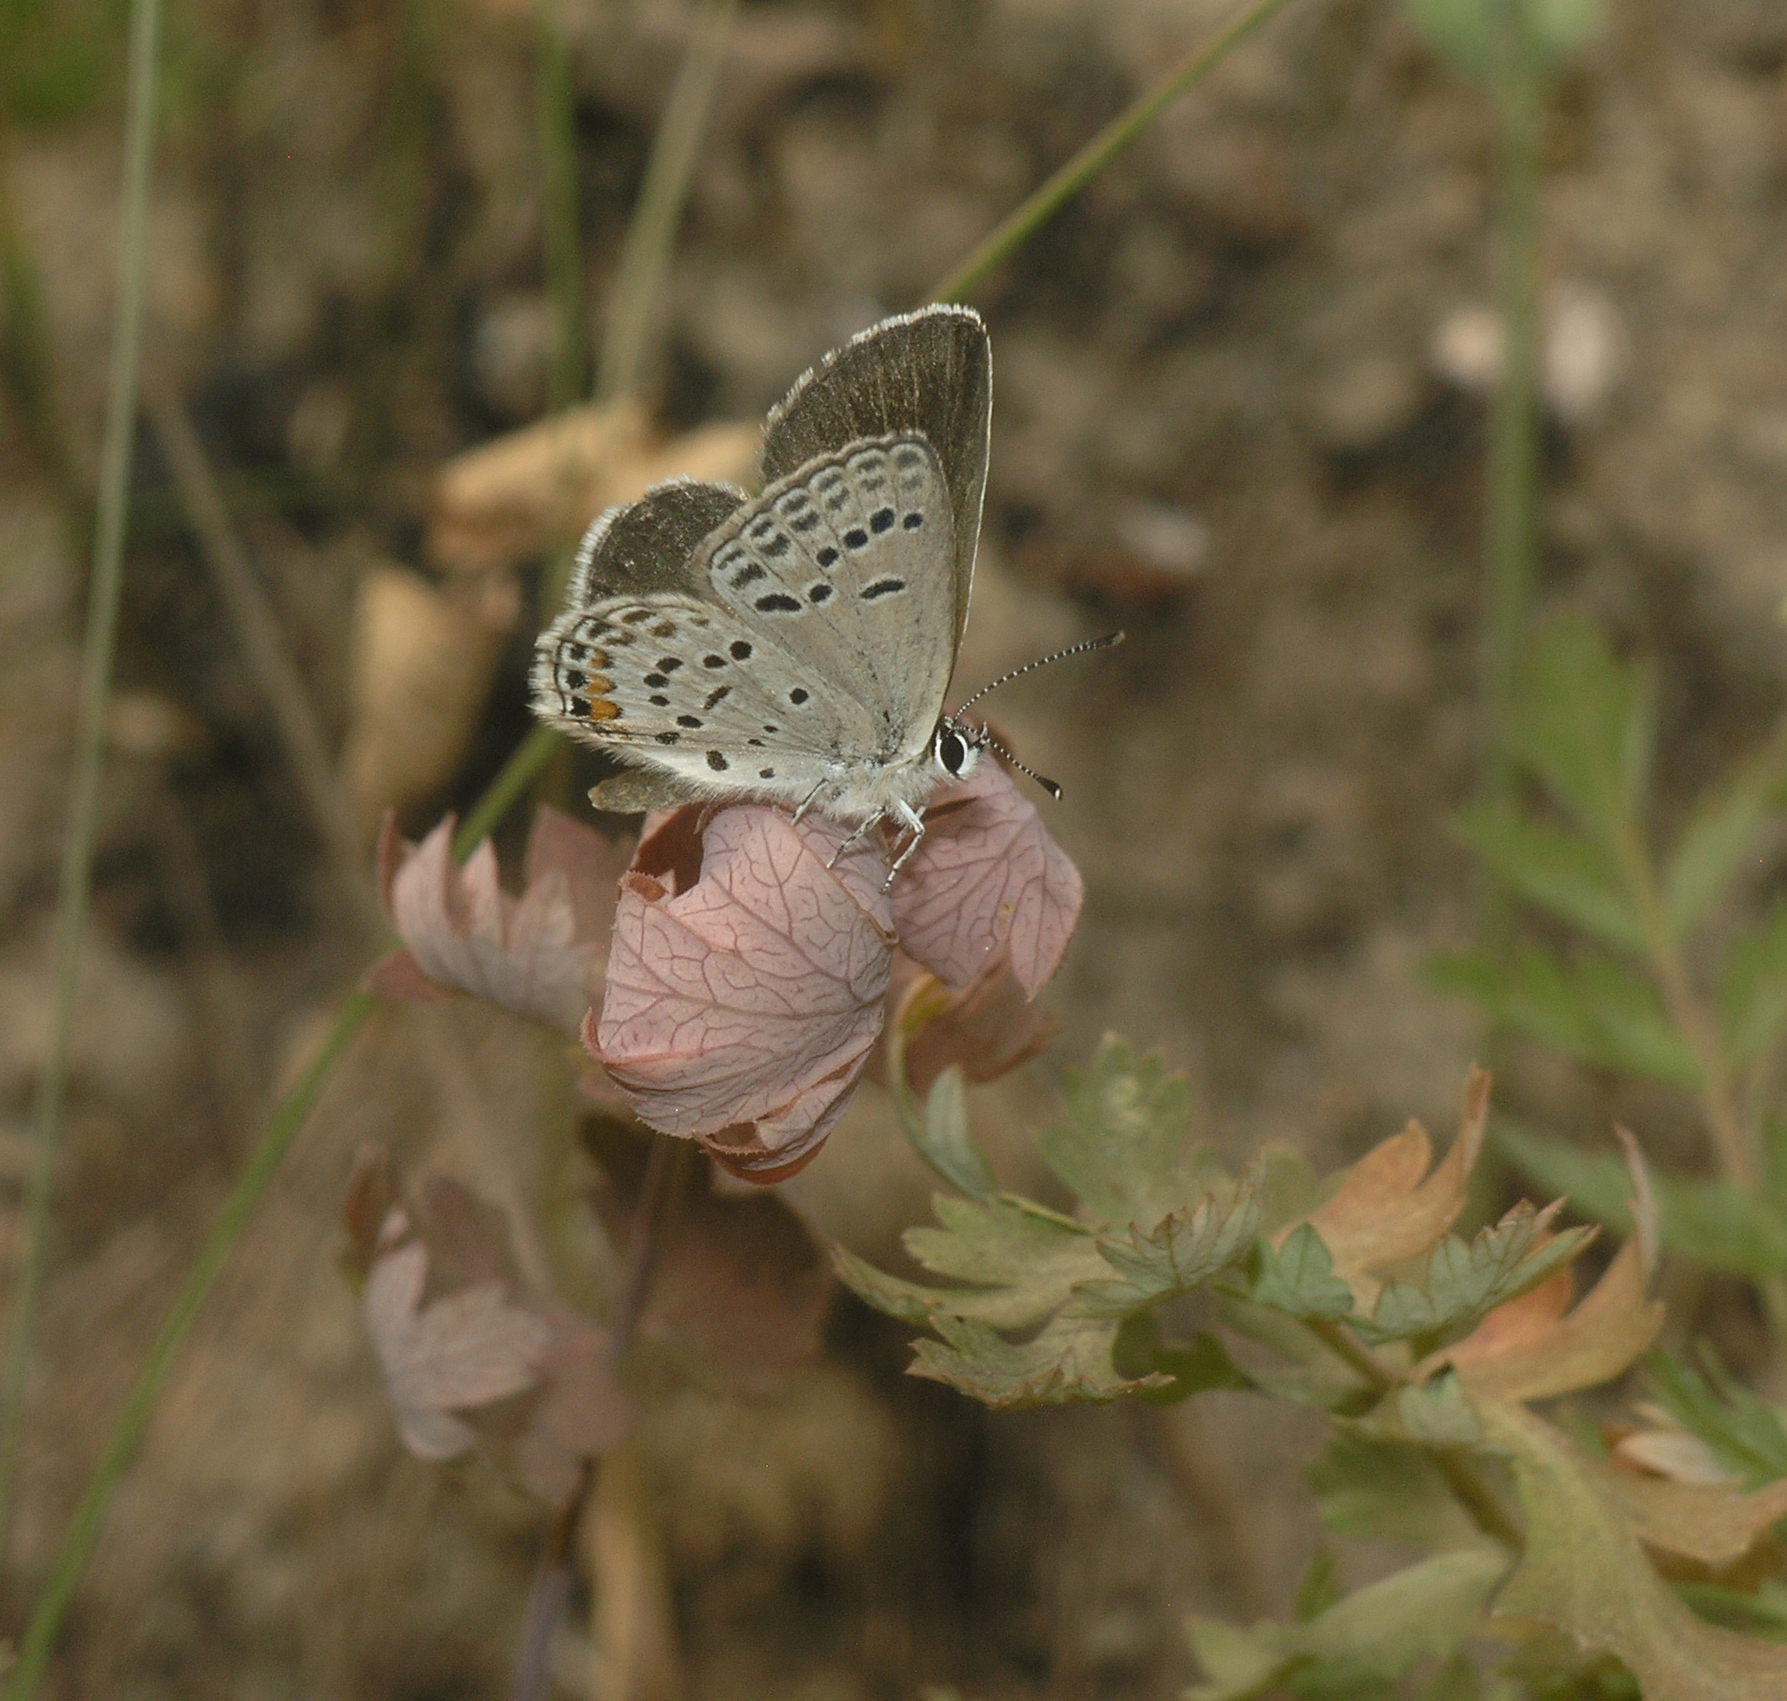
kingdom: Animalia
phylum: Arthropoda
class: Insecta
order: Lepidoptera
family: Lycaenidae
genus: Tongeia
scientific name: Tongeia fischeri
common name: Fischer's blue
